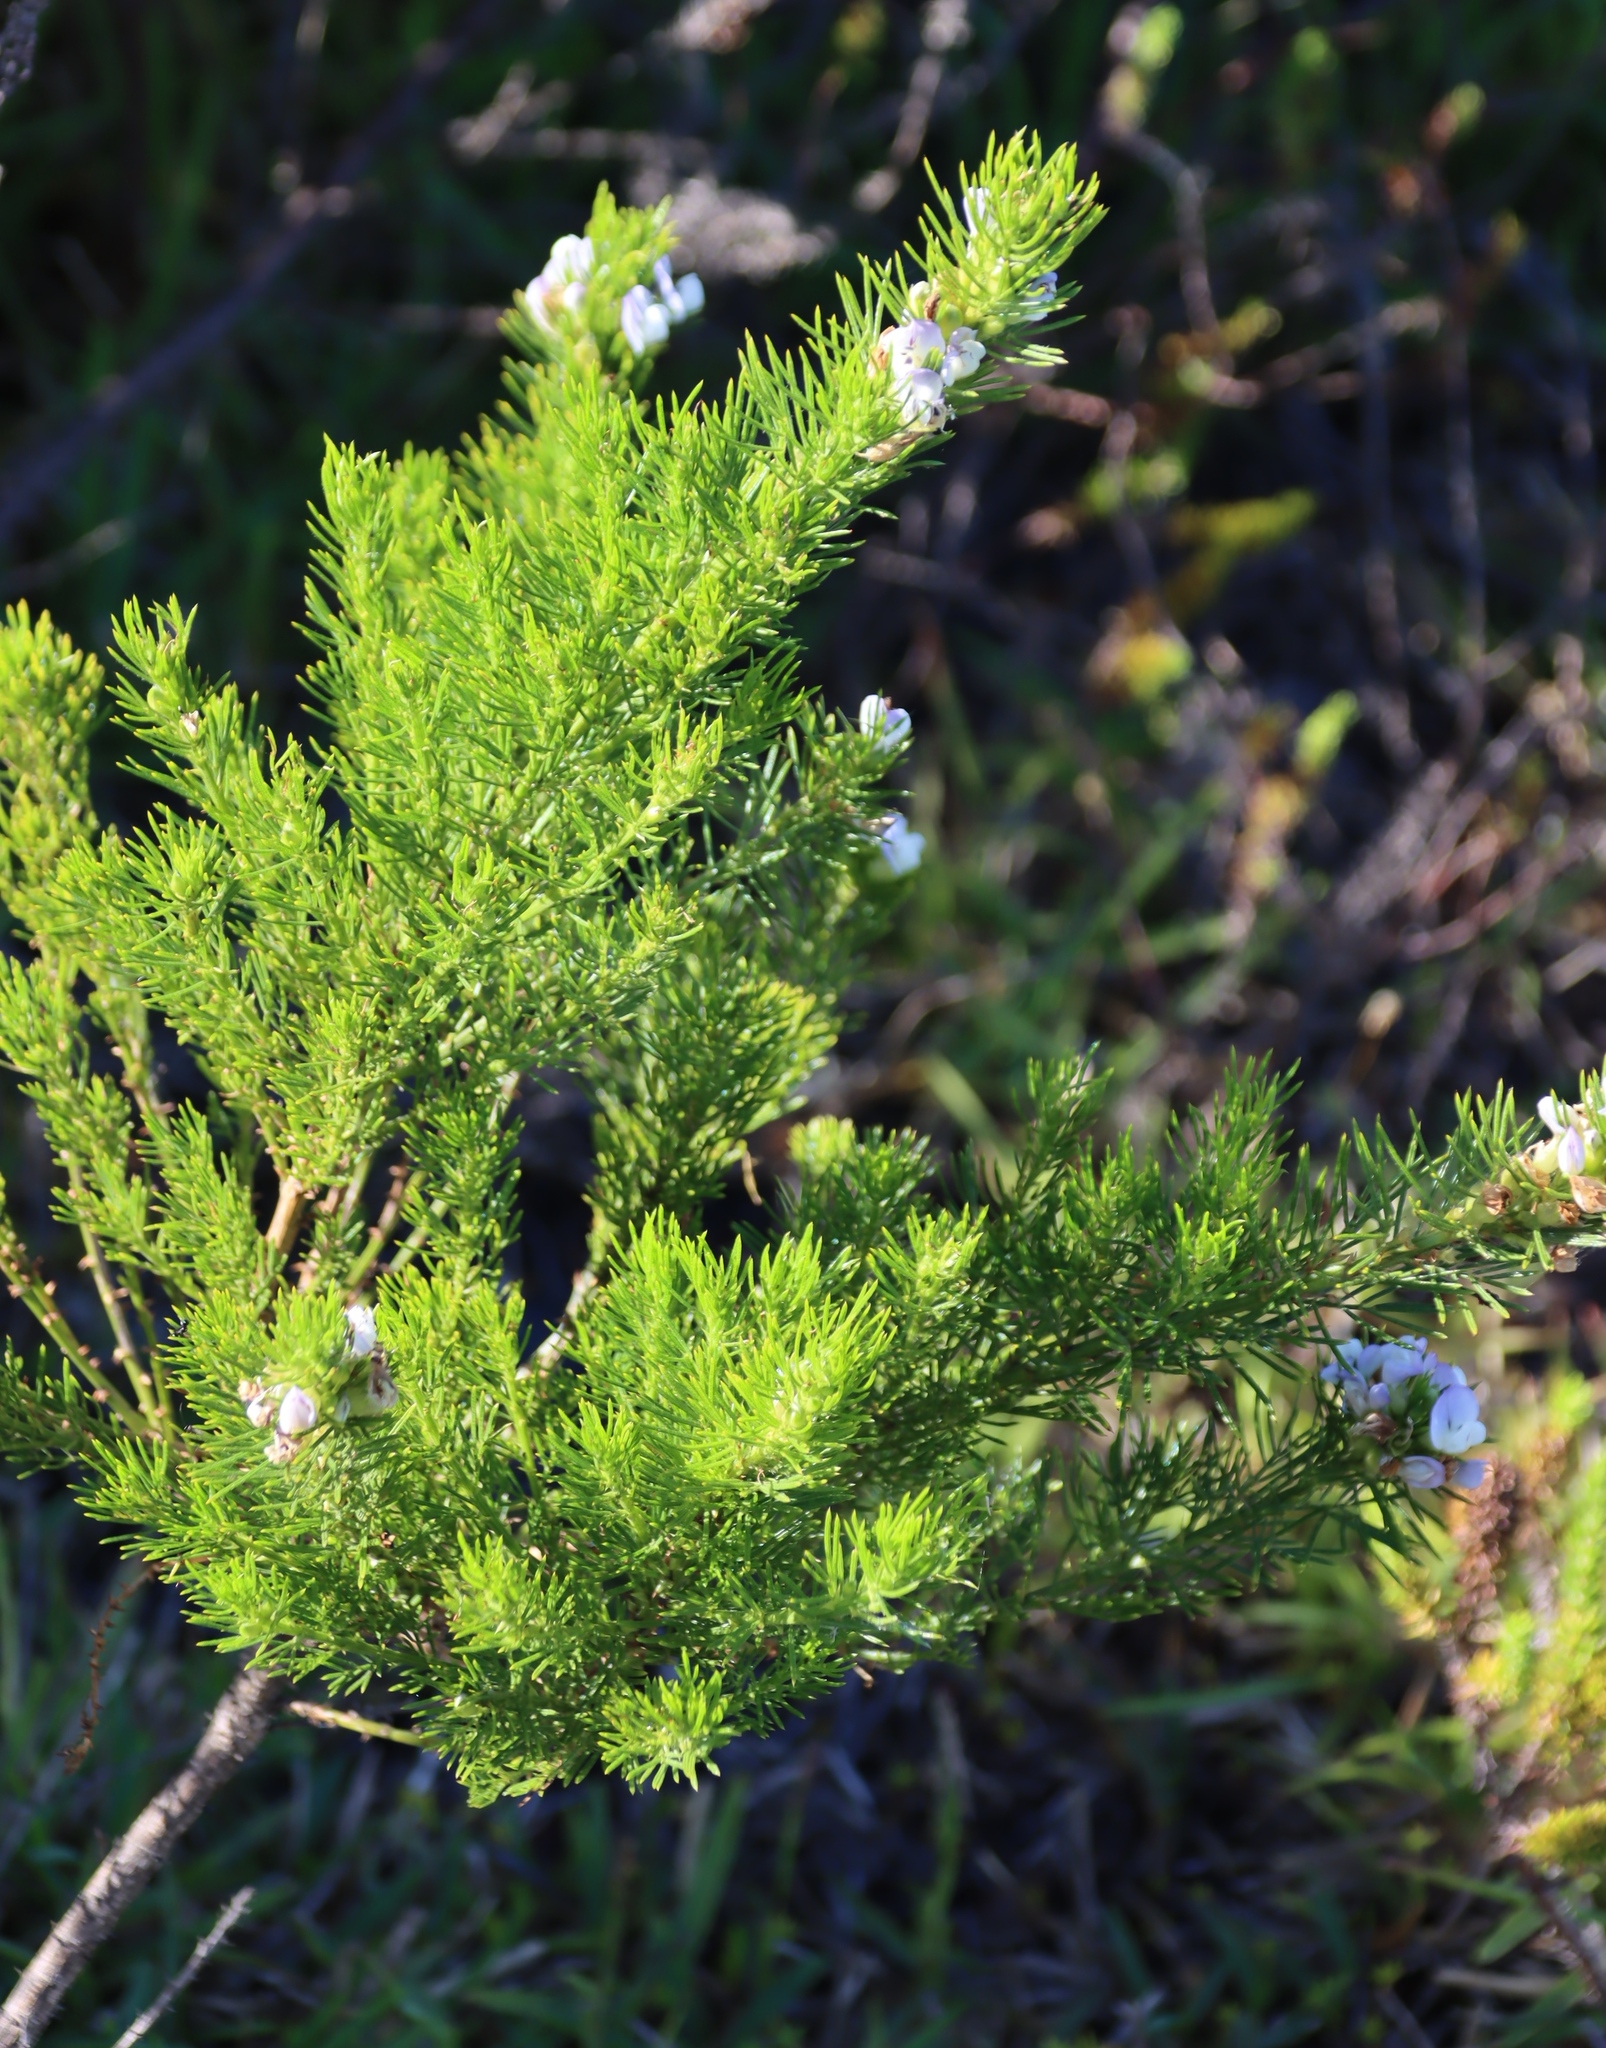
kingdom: Plantae
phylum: Tracheophyta
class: Magnoliopsida
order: Fabales
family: Fabaceae
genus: Psoralea
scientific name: Psoralea pinnata
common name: African scurfpea
